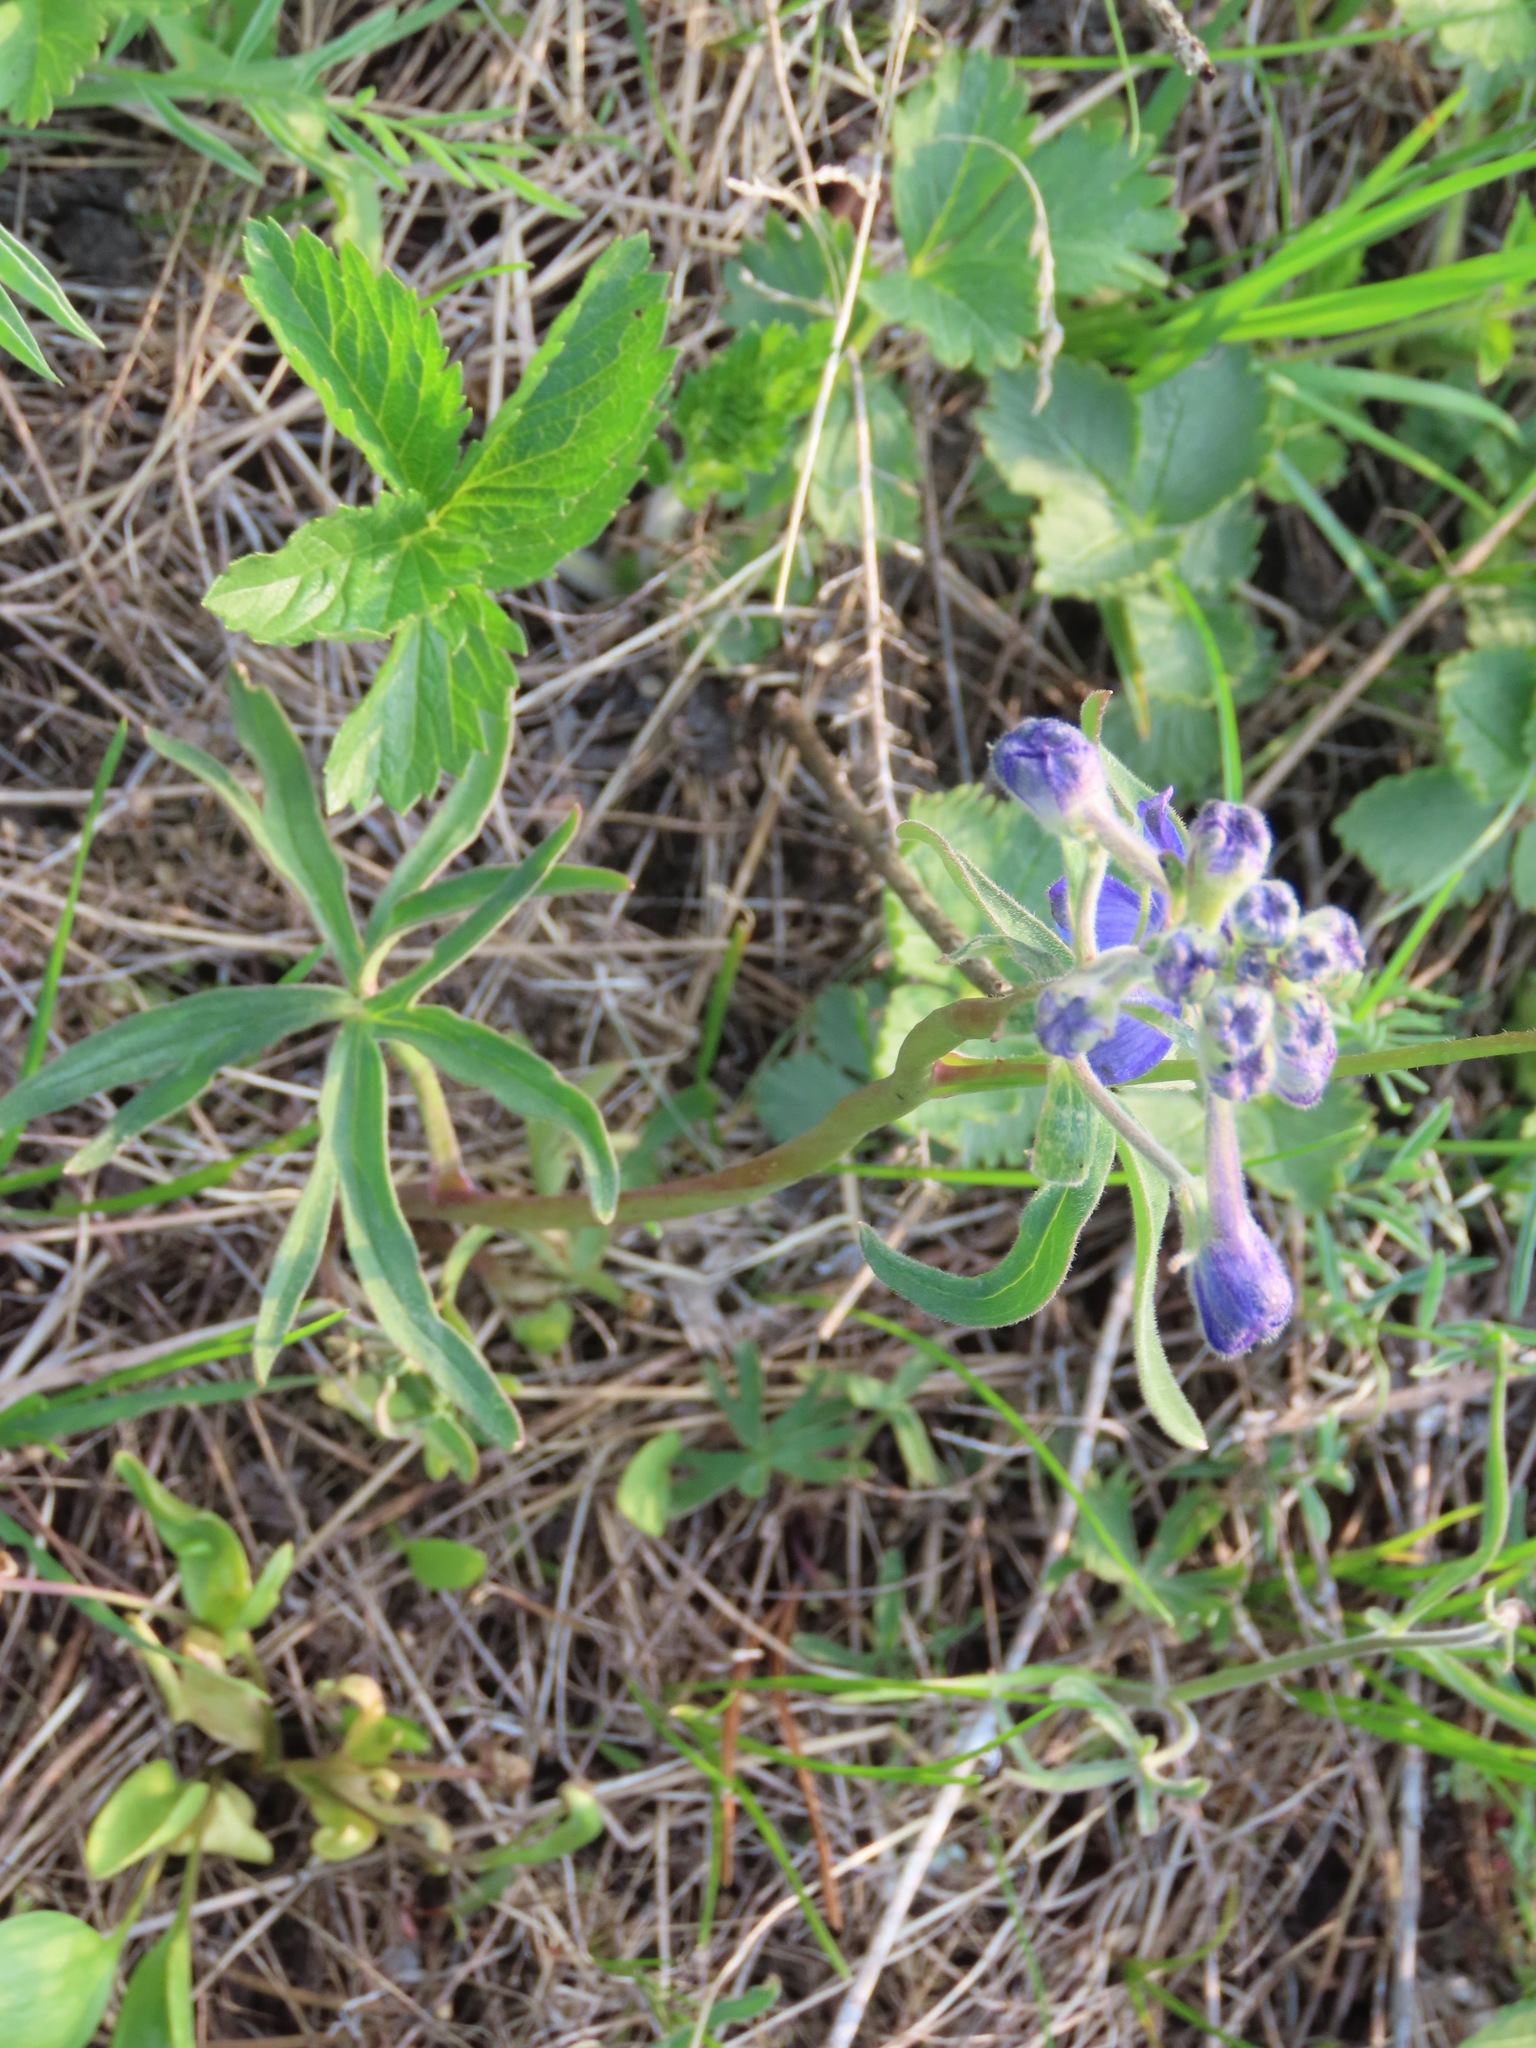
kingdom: Plantae
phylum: Tracheophyta
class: Magnoliopsida
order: Ranunculales
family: Ranunculaceae
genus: Delphinium
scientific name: Delphinium nuttallianum
